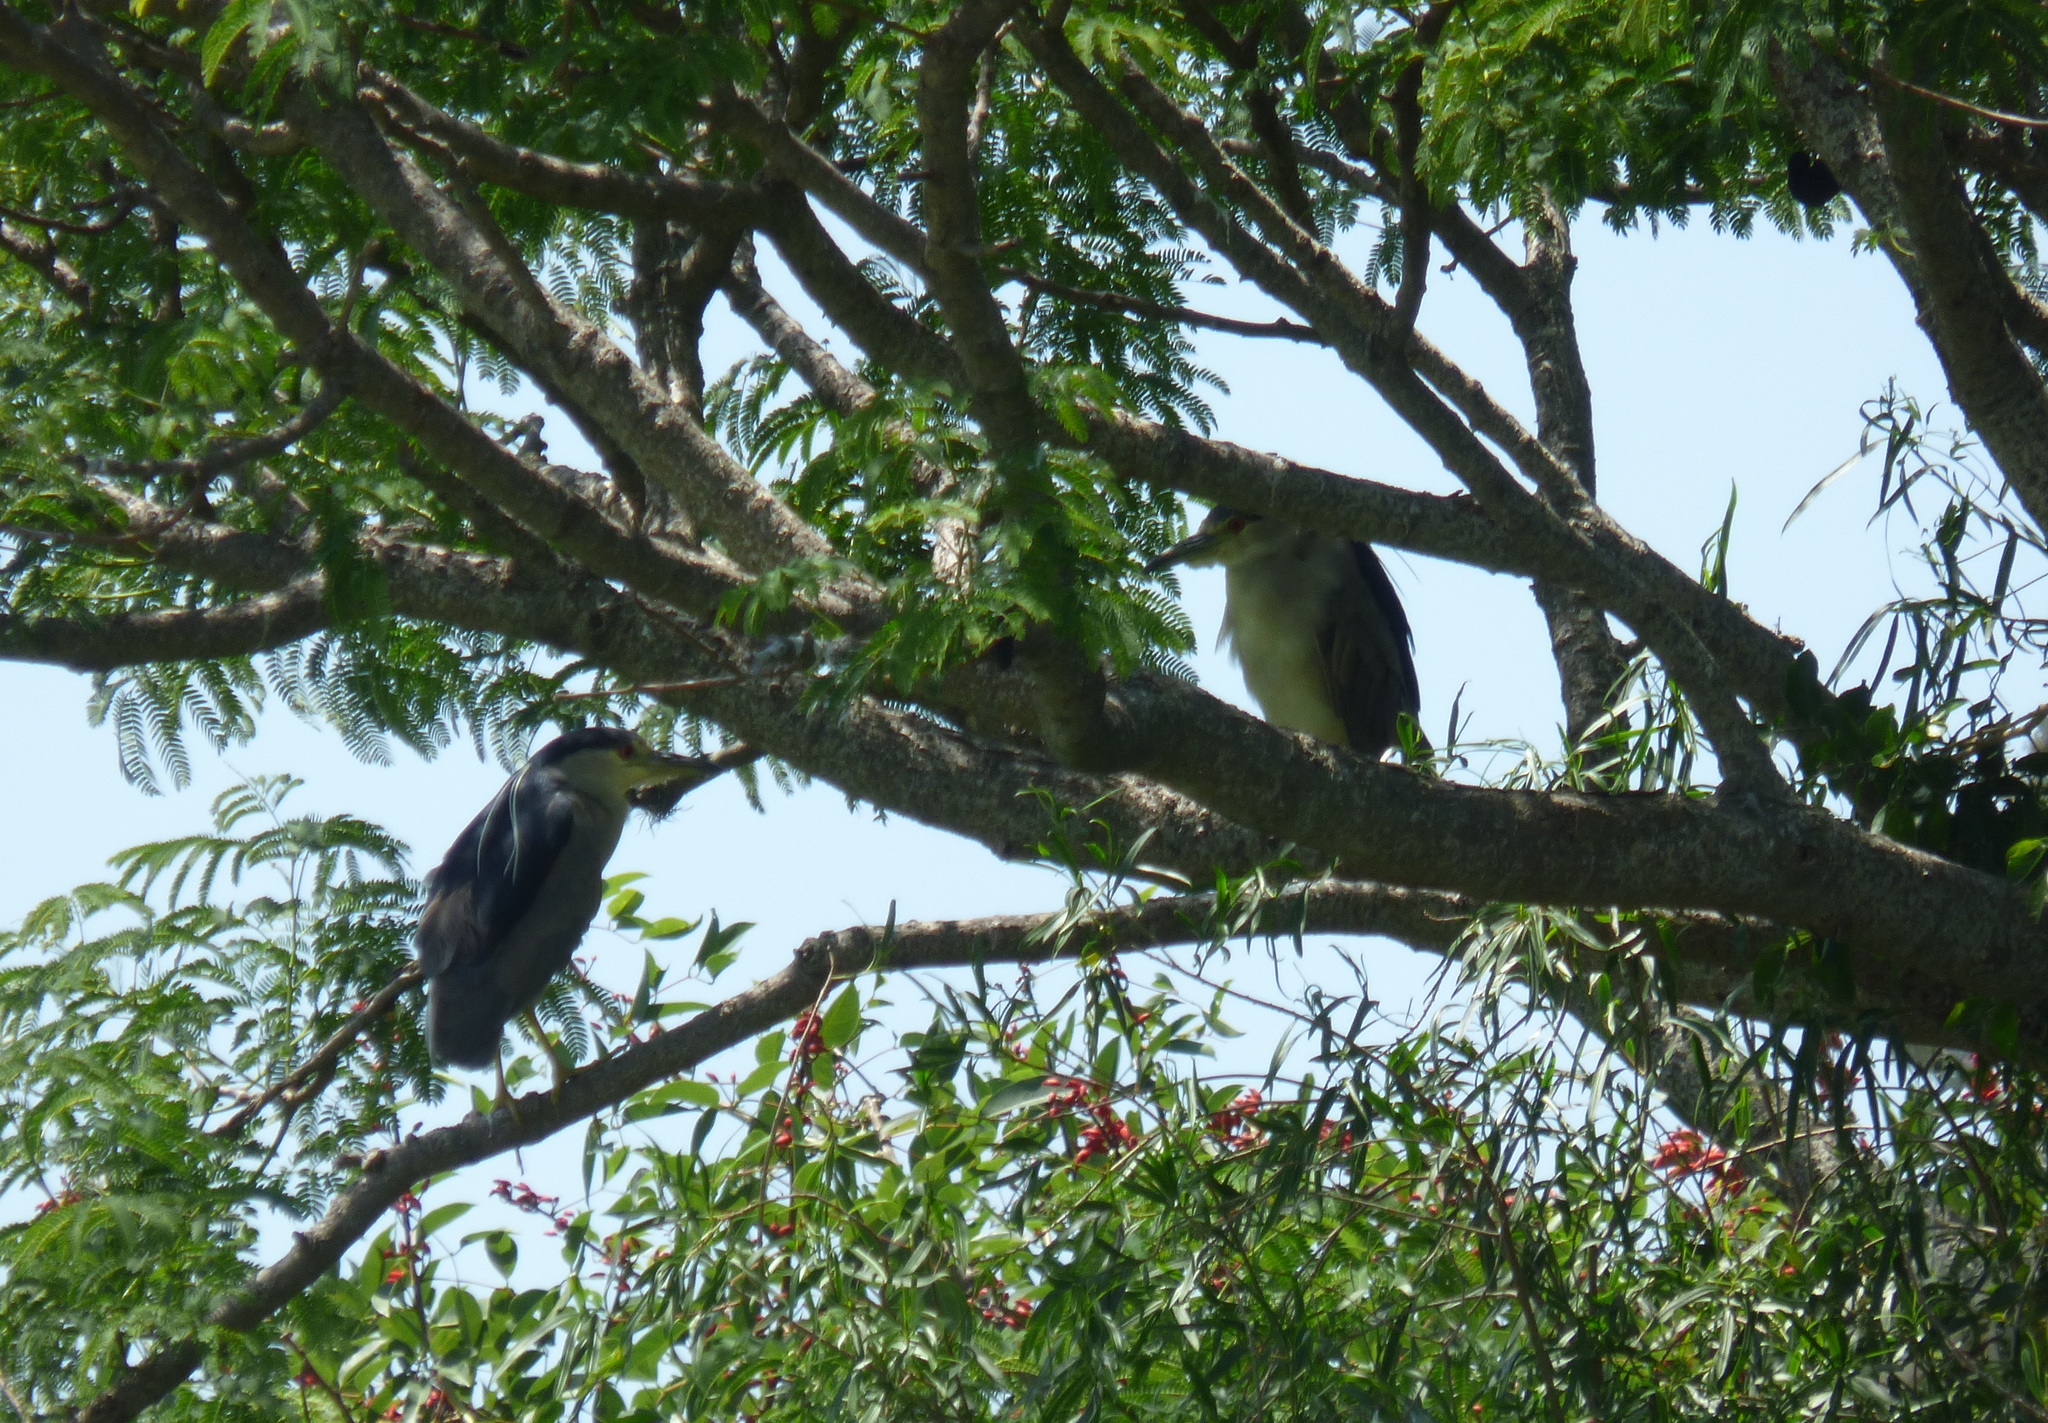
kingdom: Animalia
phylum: Chordata
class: Aves
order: Pelecaniformes
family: Ardeidae
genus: Nycticorax
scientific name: Nycticorax nycticorax
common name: Black-crowned night heron
